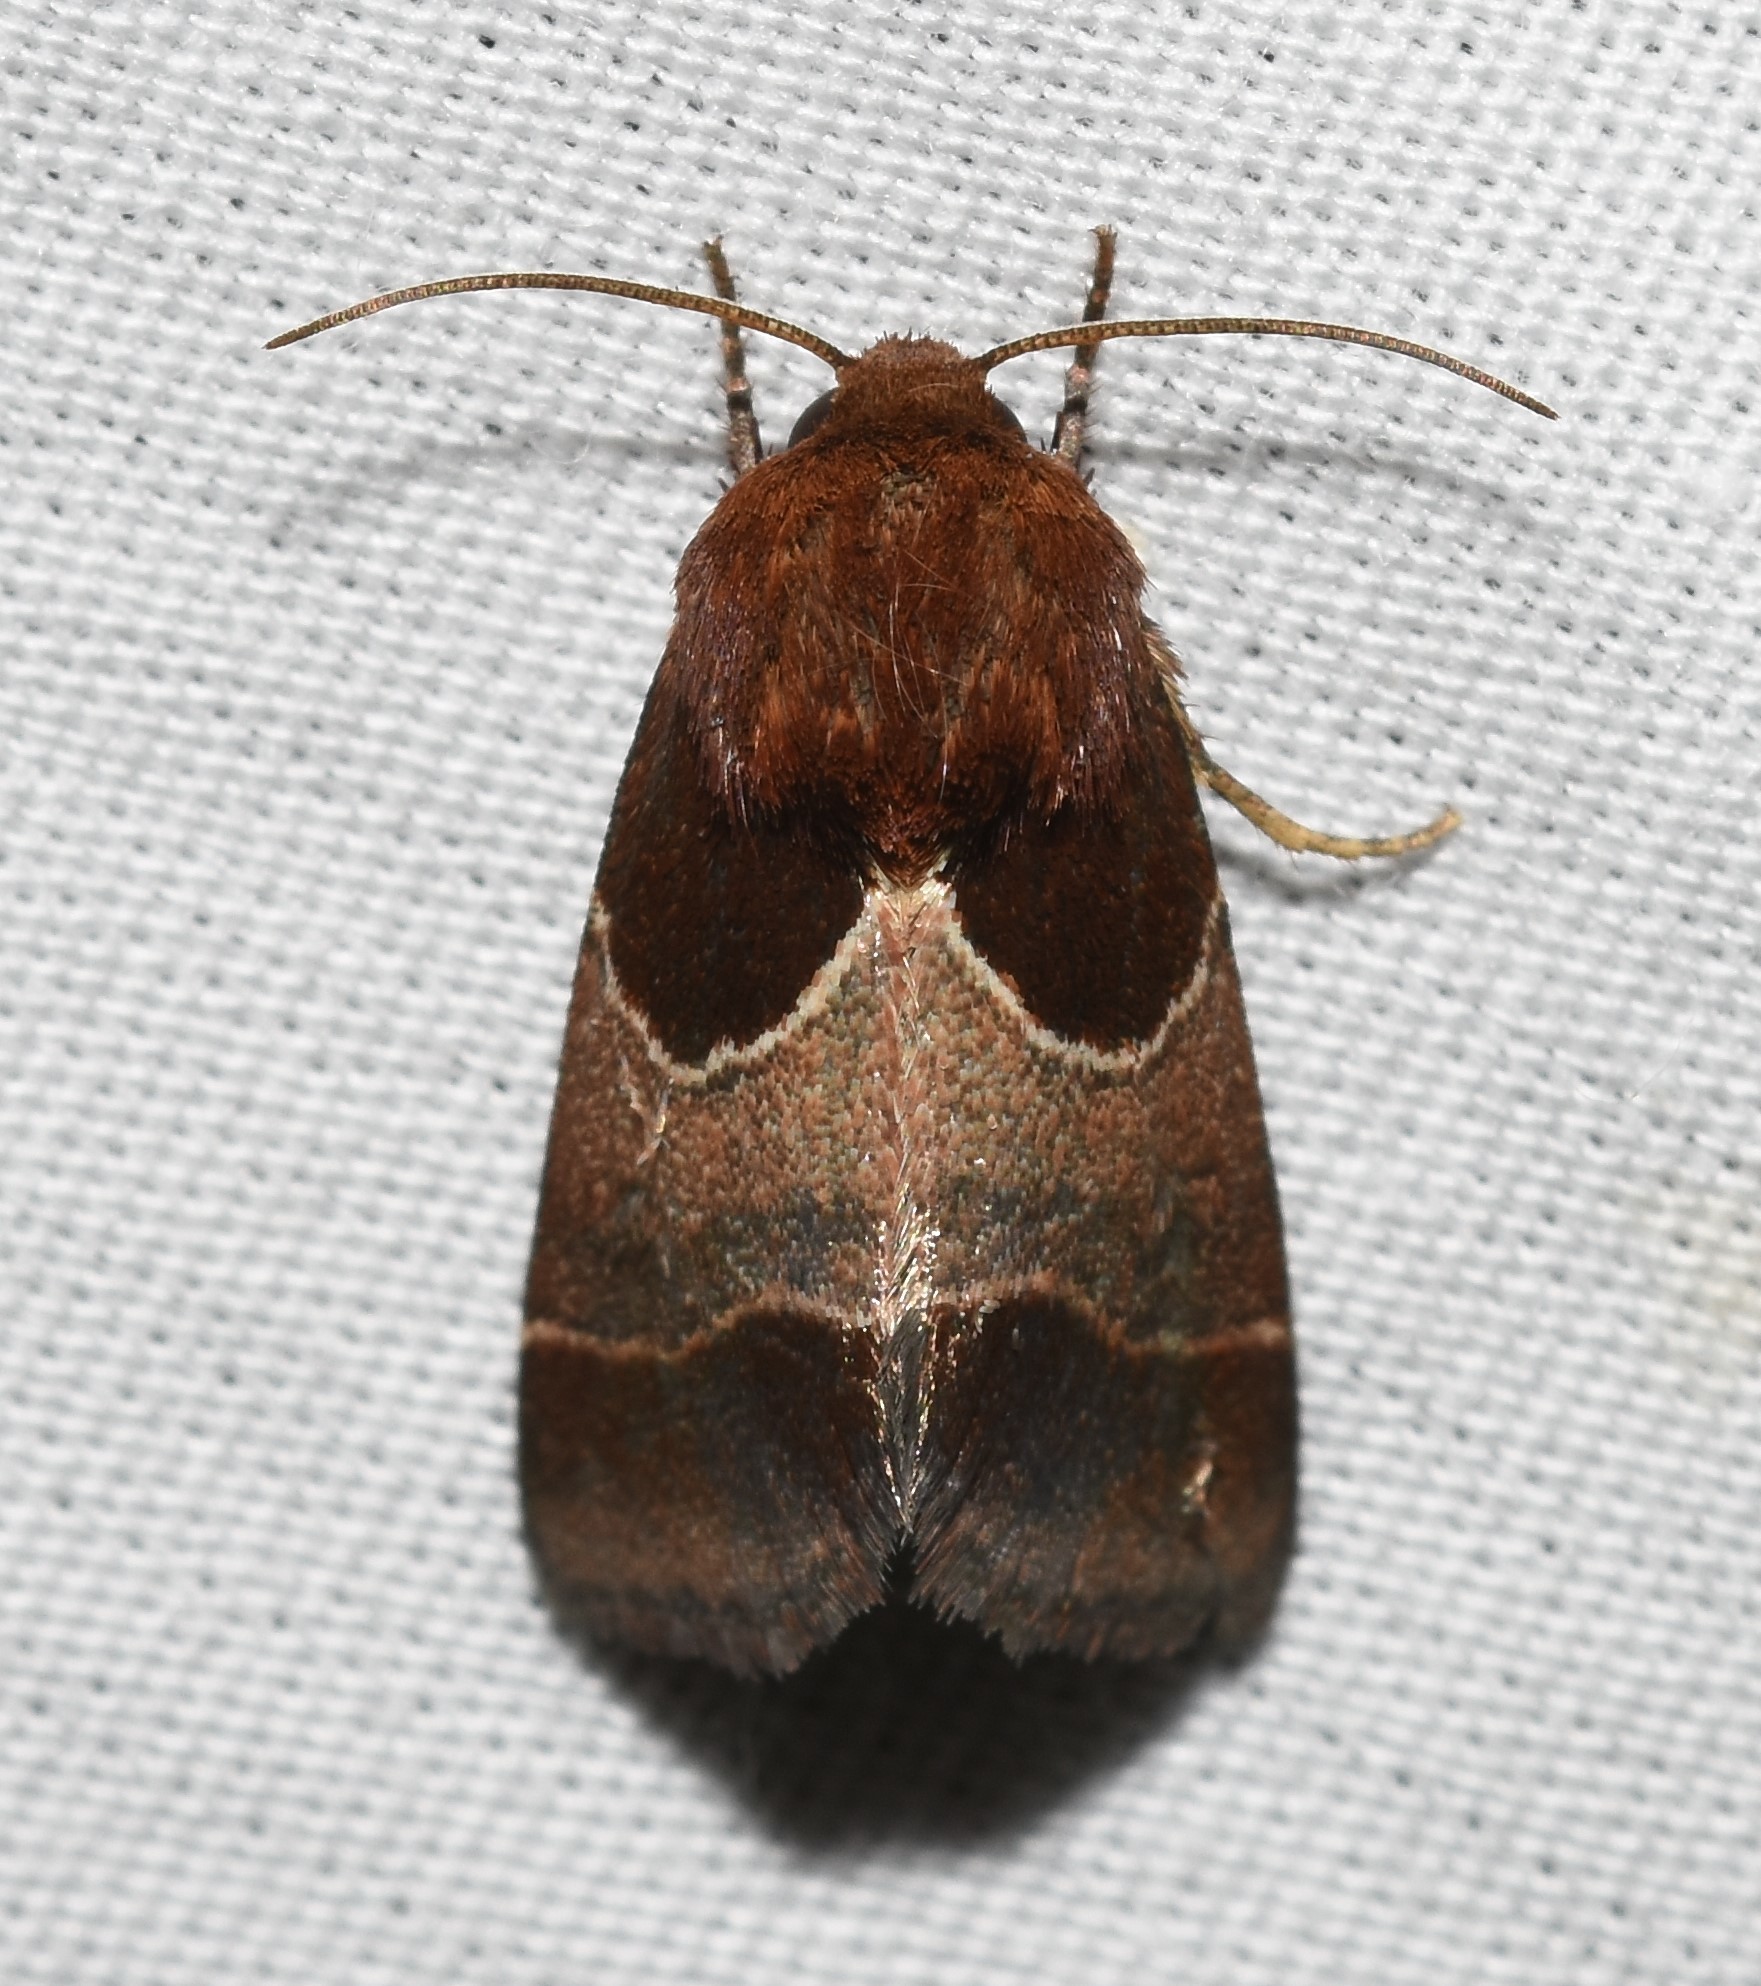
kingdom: Animalia
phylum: Arthropoda
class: Insecta
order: Lepidoptera
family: Noctuidae
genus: Schinia
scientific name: Schinia arcigera
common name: Arcigera flower moth
